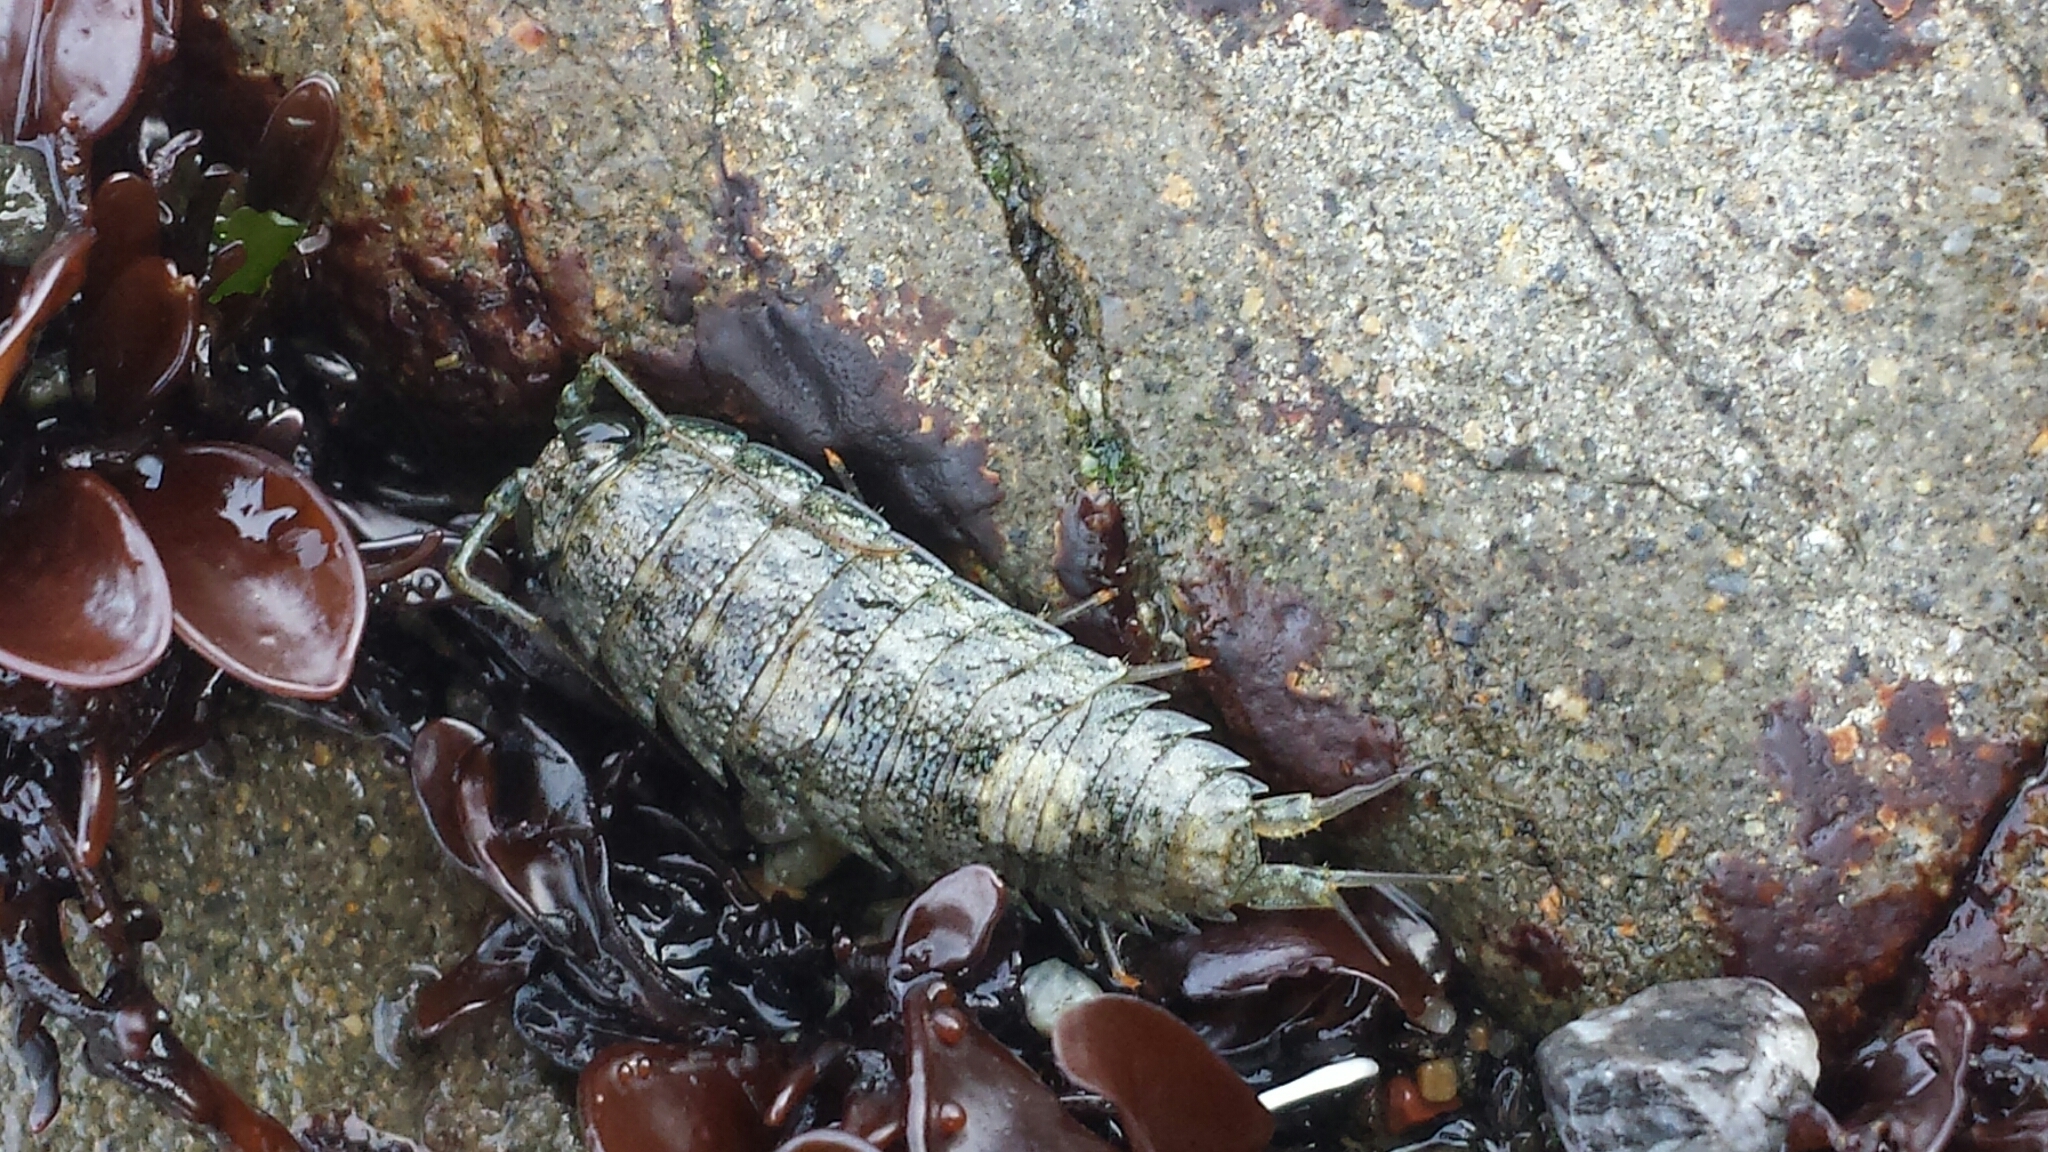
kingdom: Animalia
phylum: Arthropoda
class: Malacostraca
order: Isopoda
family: Ligiidae
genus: Ligia
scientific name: Ligia occidentalis
